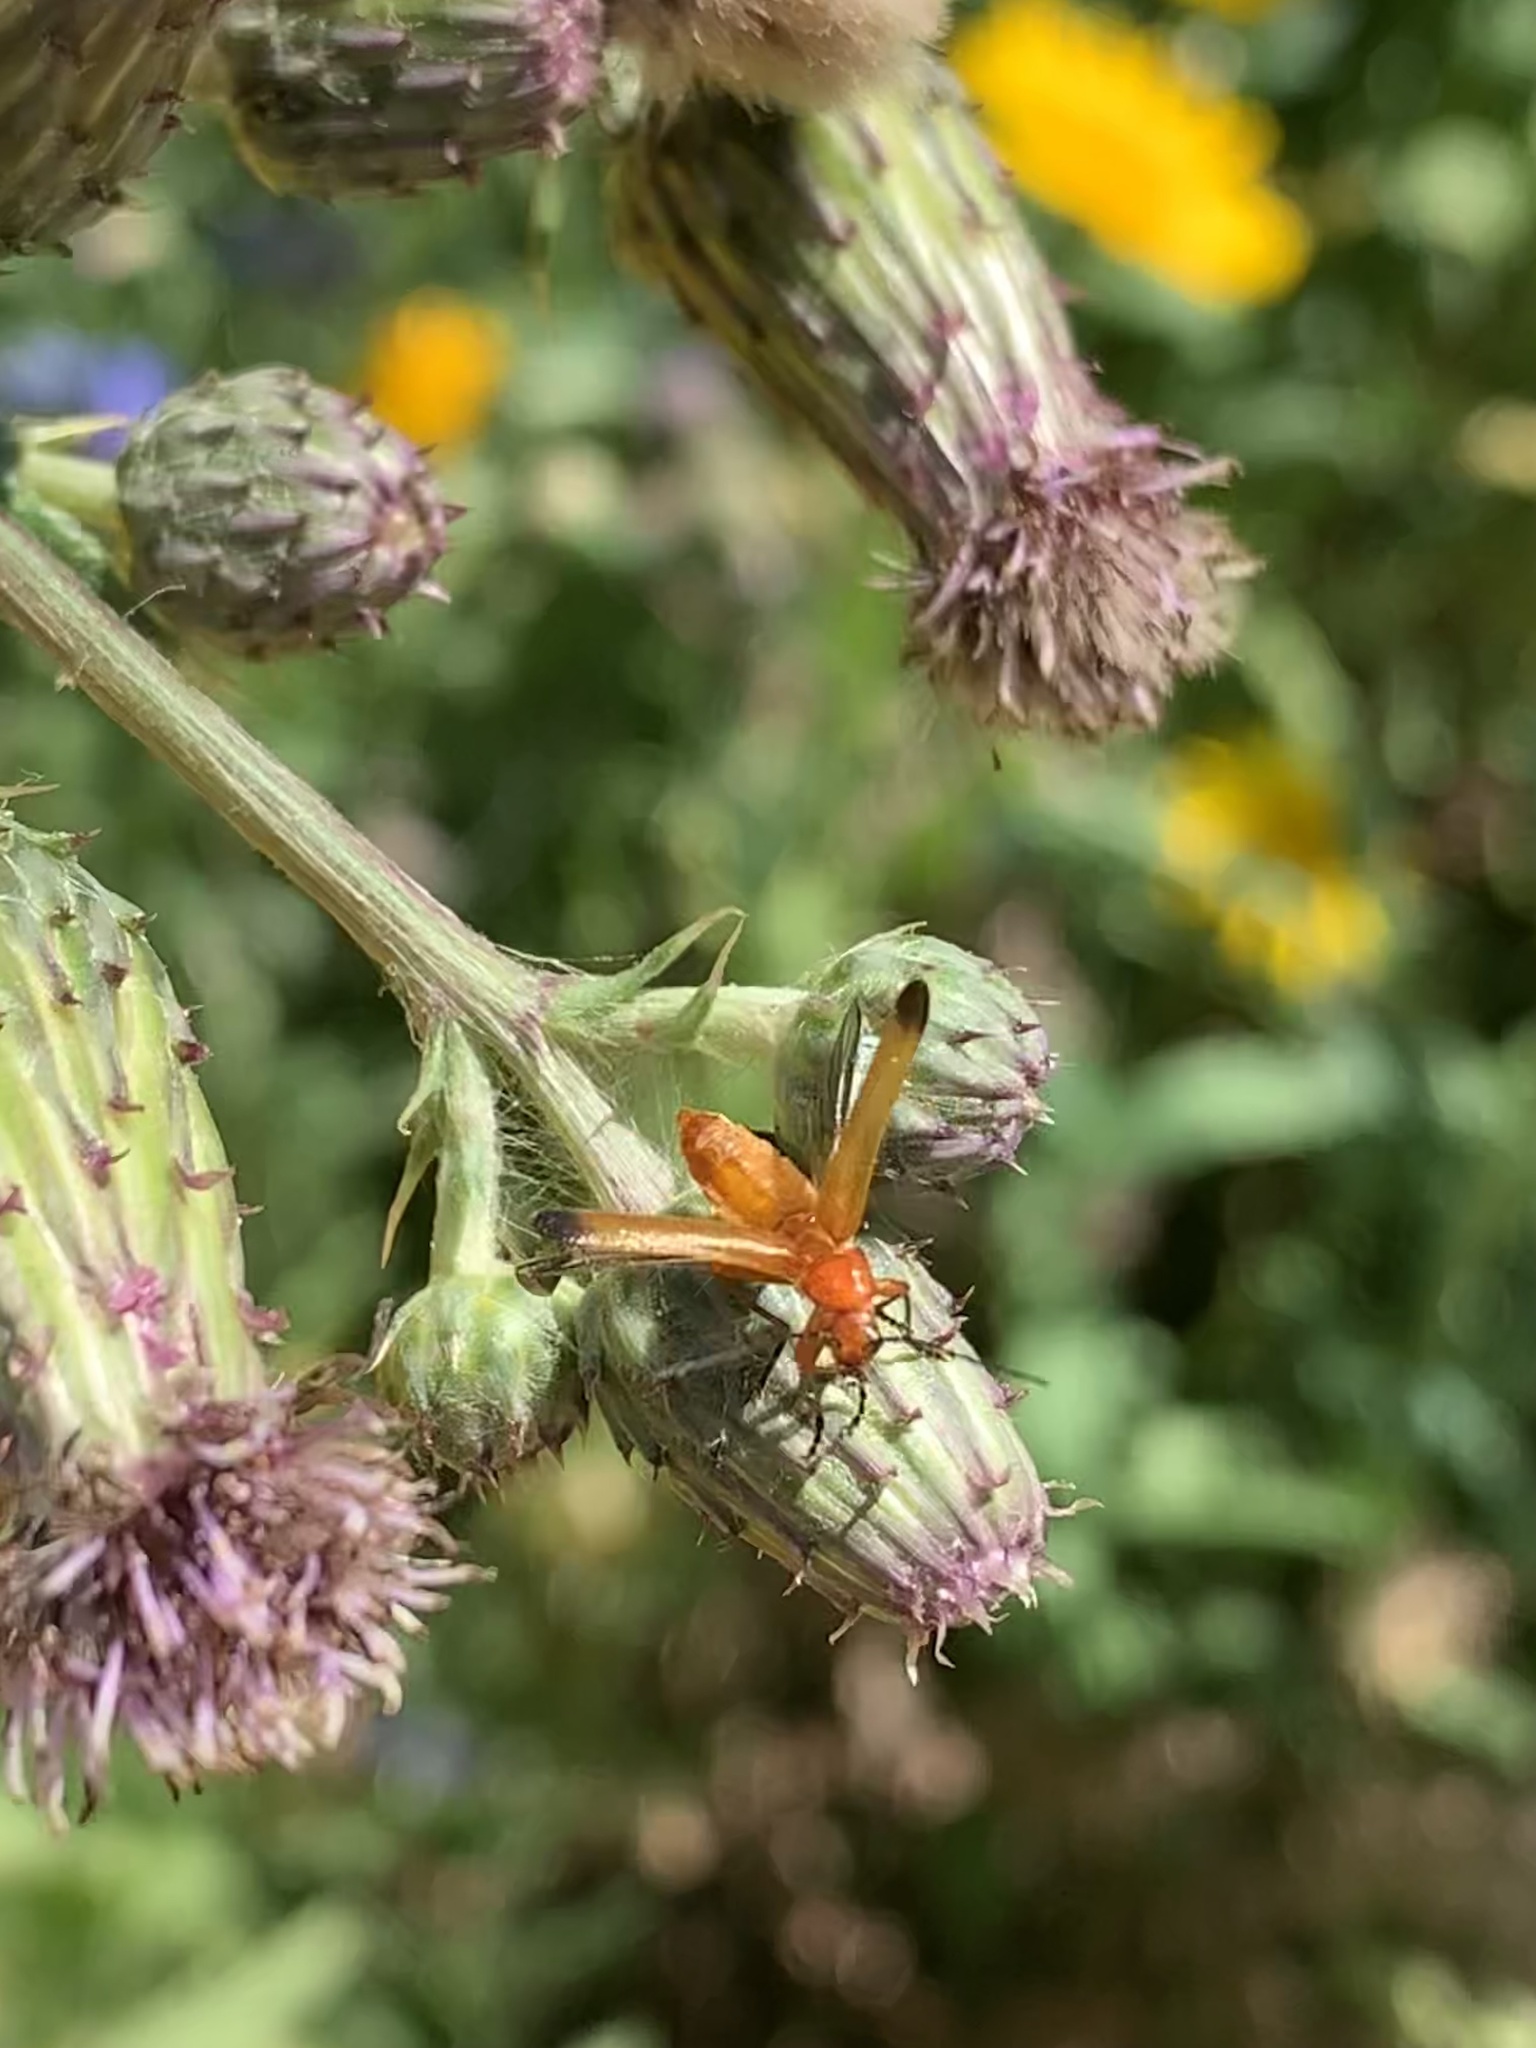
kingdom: Animalia
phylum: Arthropoda
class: Insecta
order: Coleoptera
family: Cantharidae
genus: Rhagonycha
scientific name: Rhagonycha fulva
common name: Common red soldier beetle
